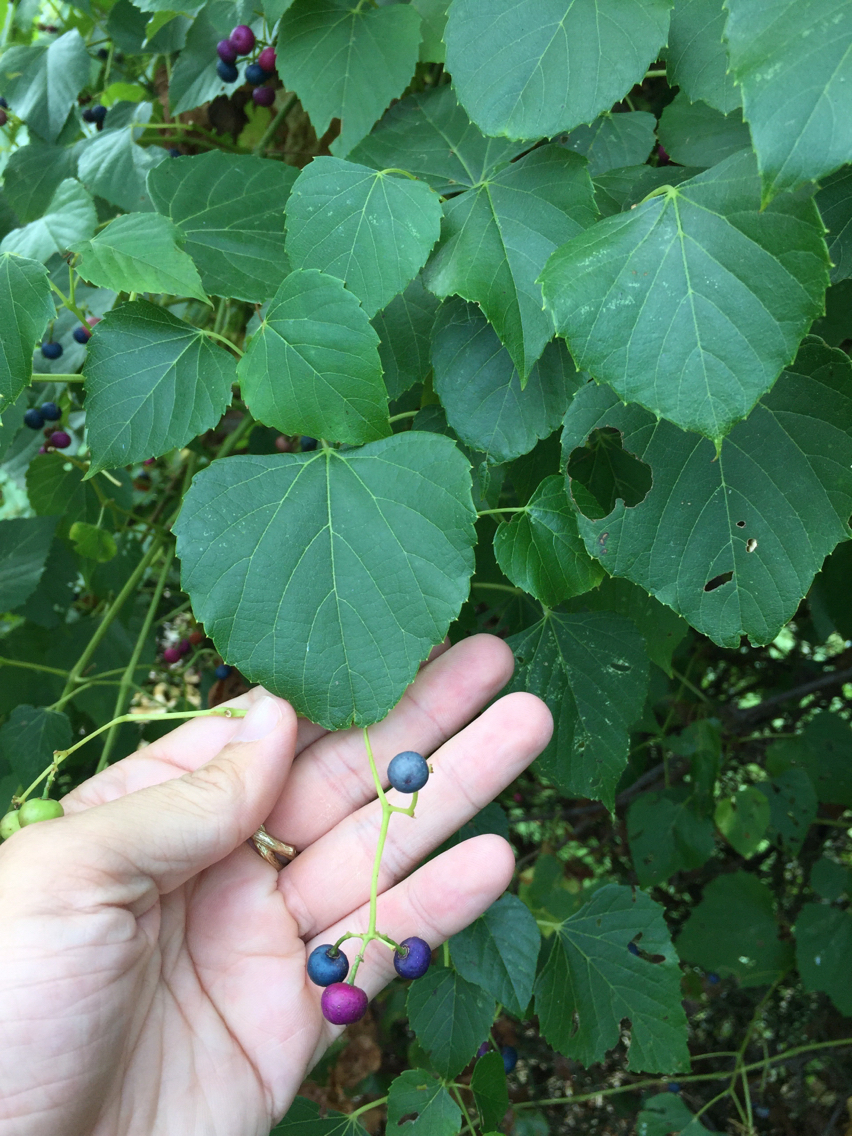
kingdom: Plantae
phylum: Tracheophyta
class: Magnoliopsida
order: Vitales
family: Vitaceae
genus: Ampelopsis
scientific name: Ampelopsis cordata
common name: Heart-leaf ampelopsis
